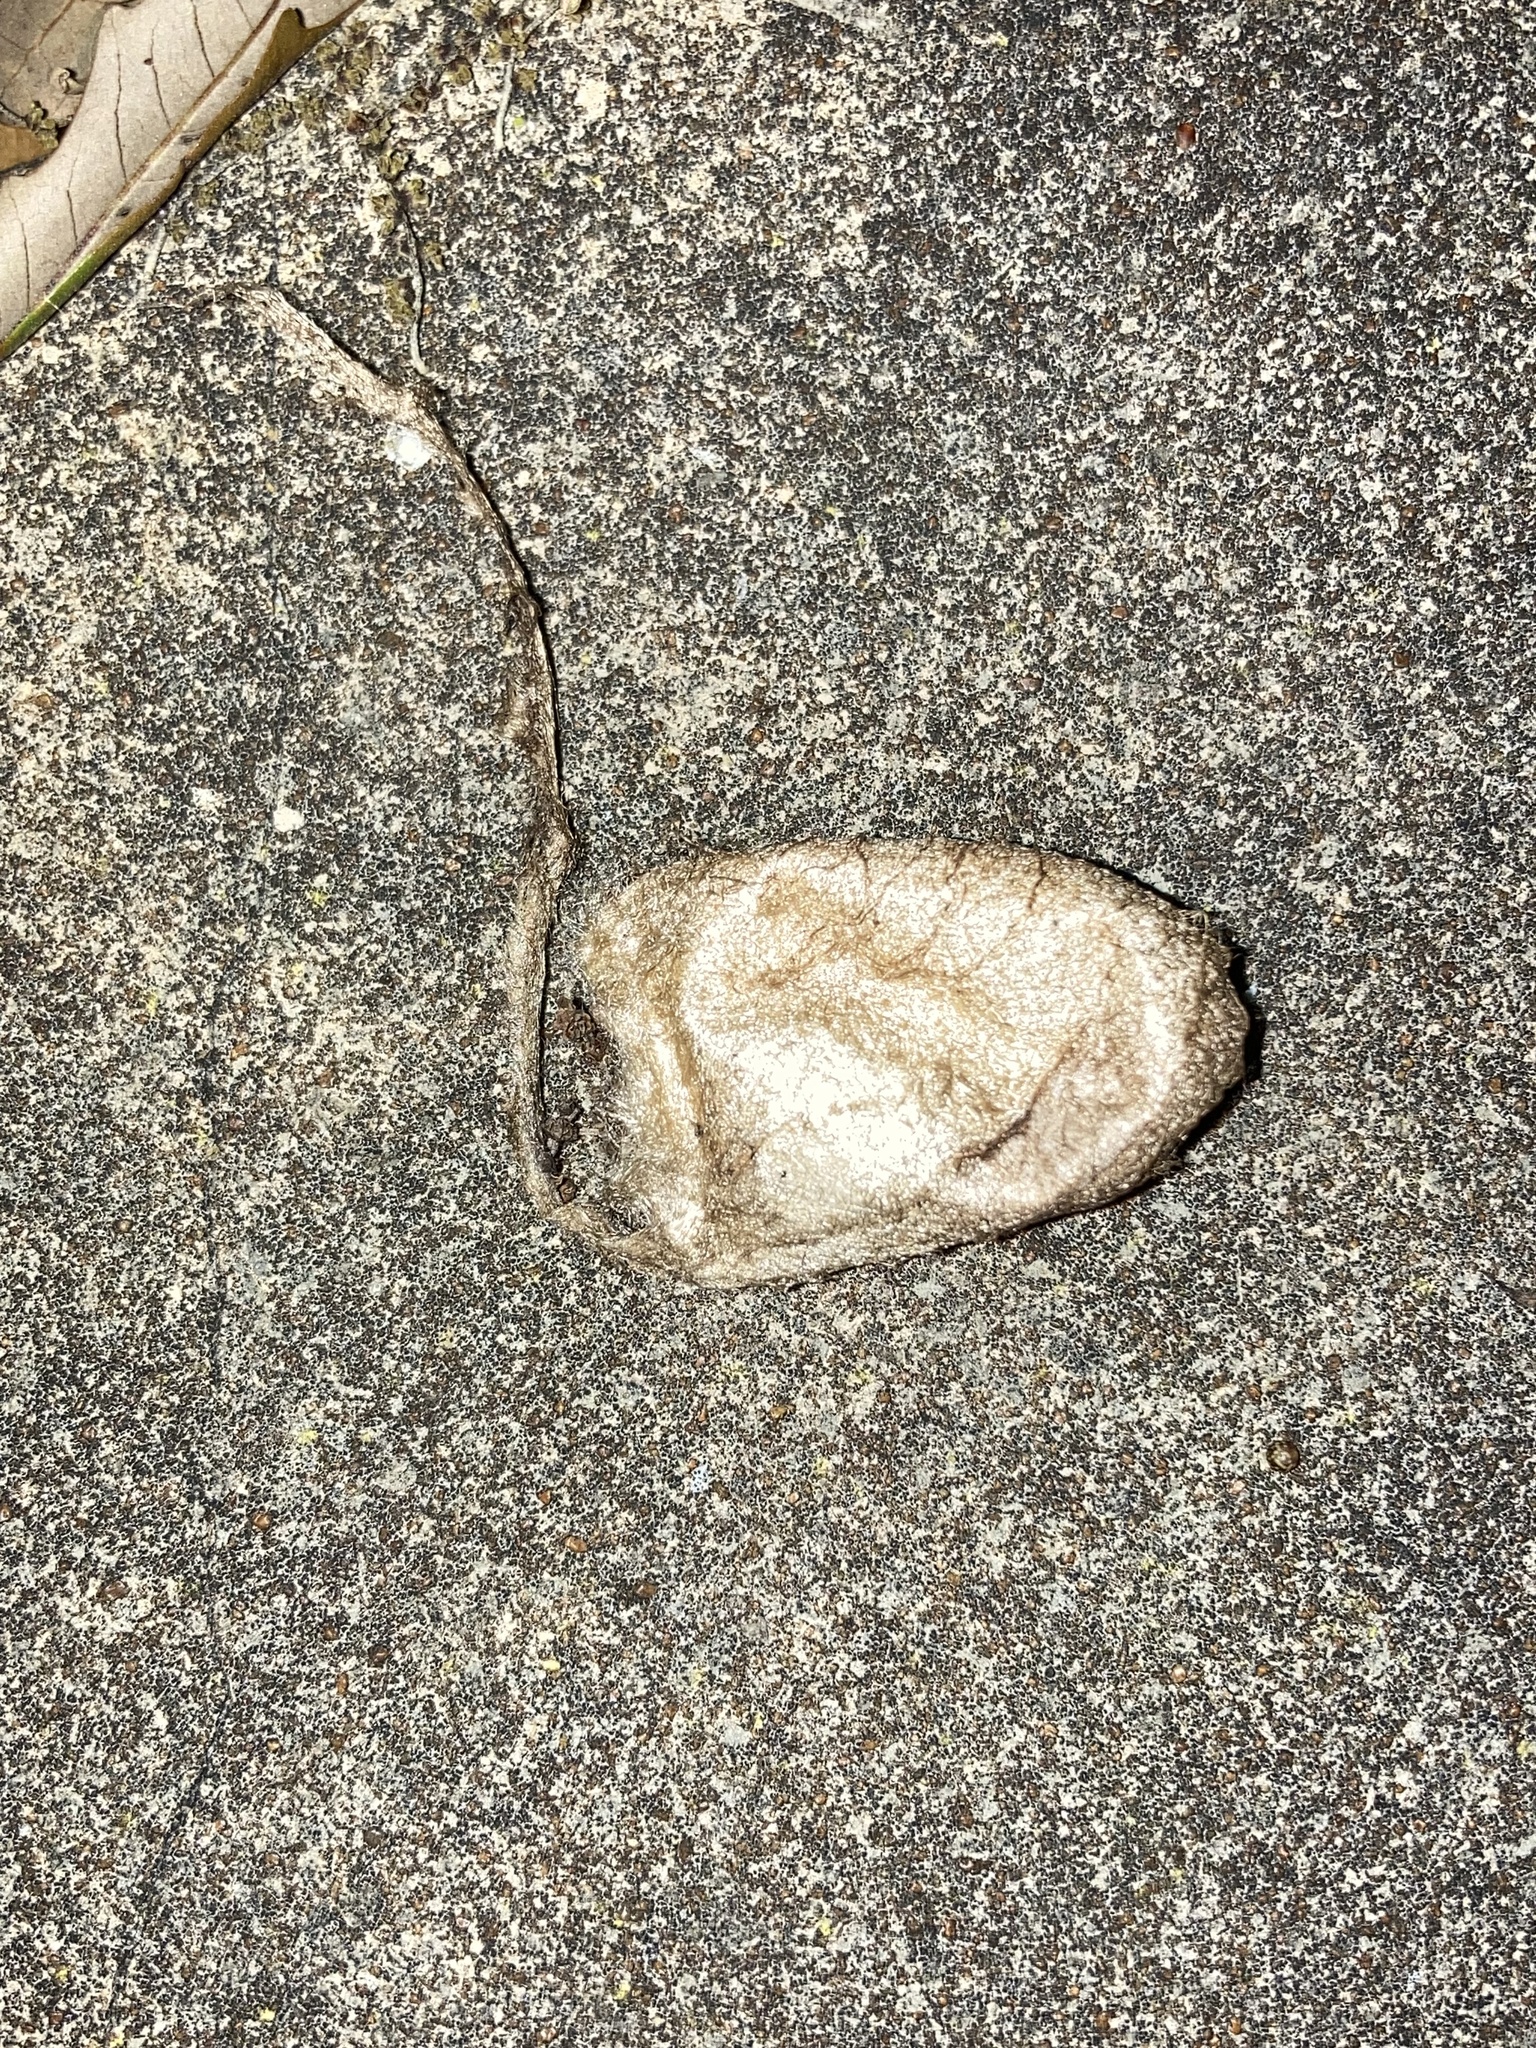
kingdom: Animalia
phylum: Arthropoda
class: Insecta
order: Lepidoptera
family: Saturniidae
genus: Antheraea
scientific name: Antheraea polyphemus
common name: Polyphemus moth
